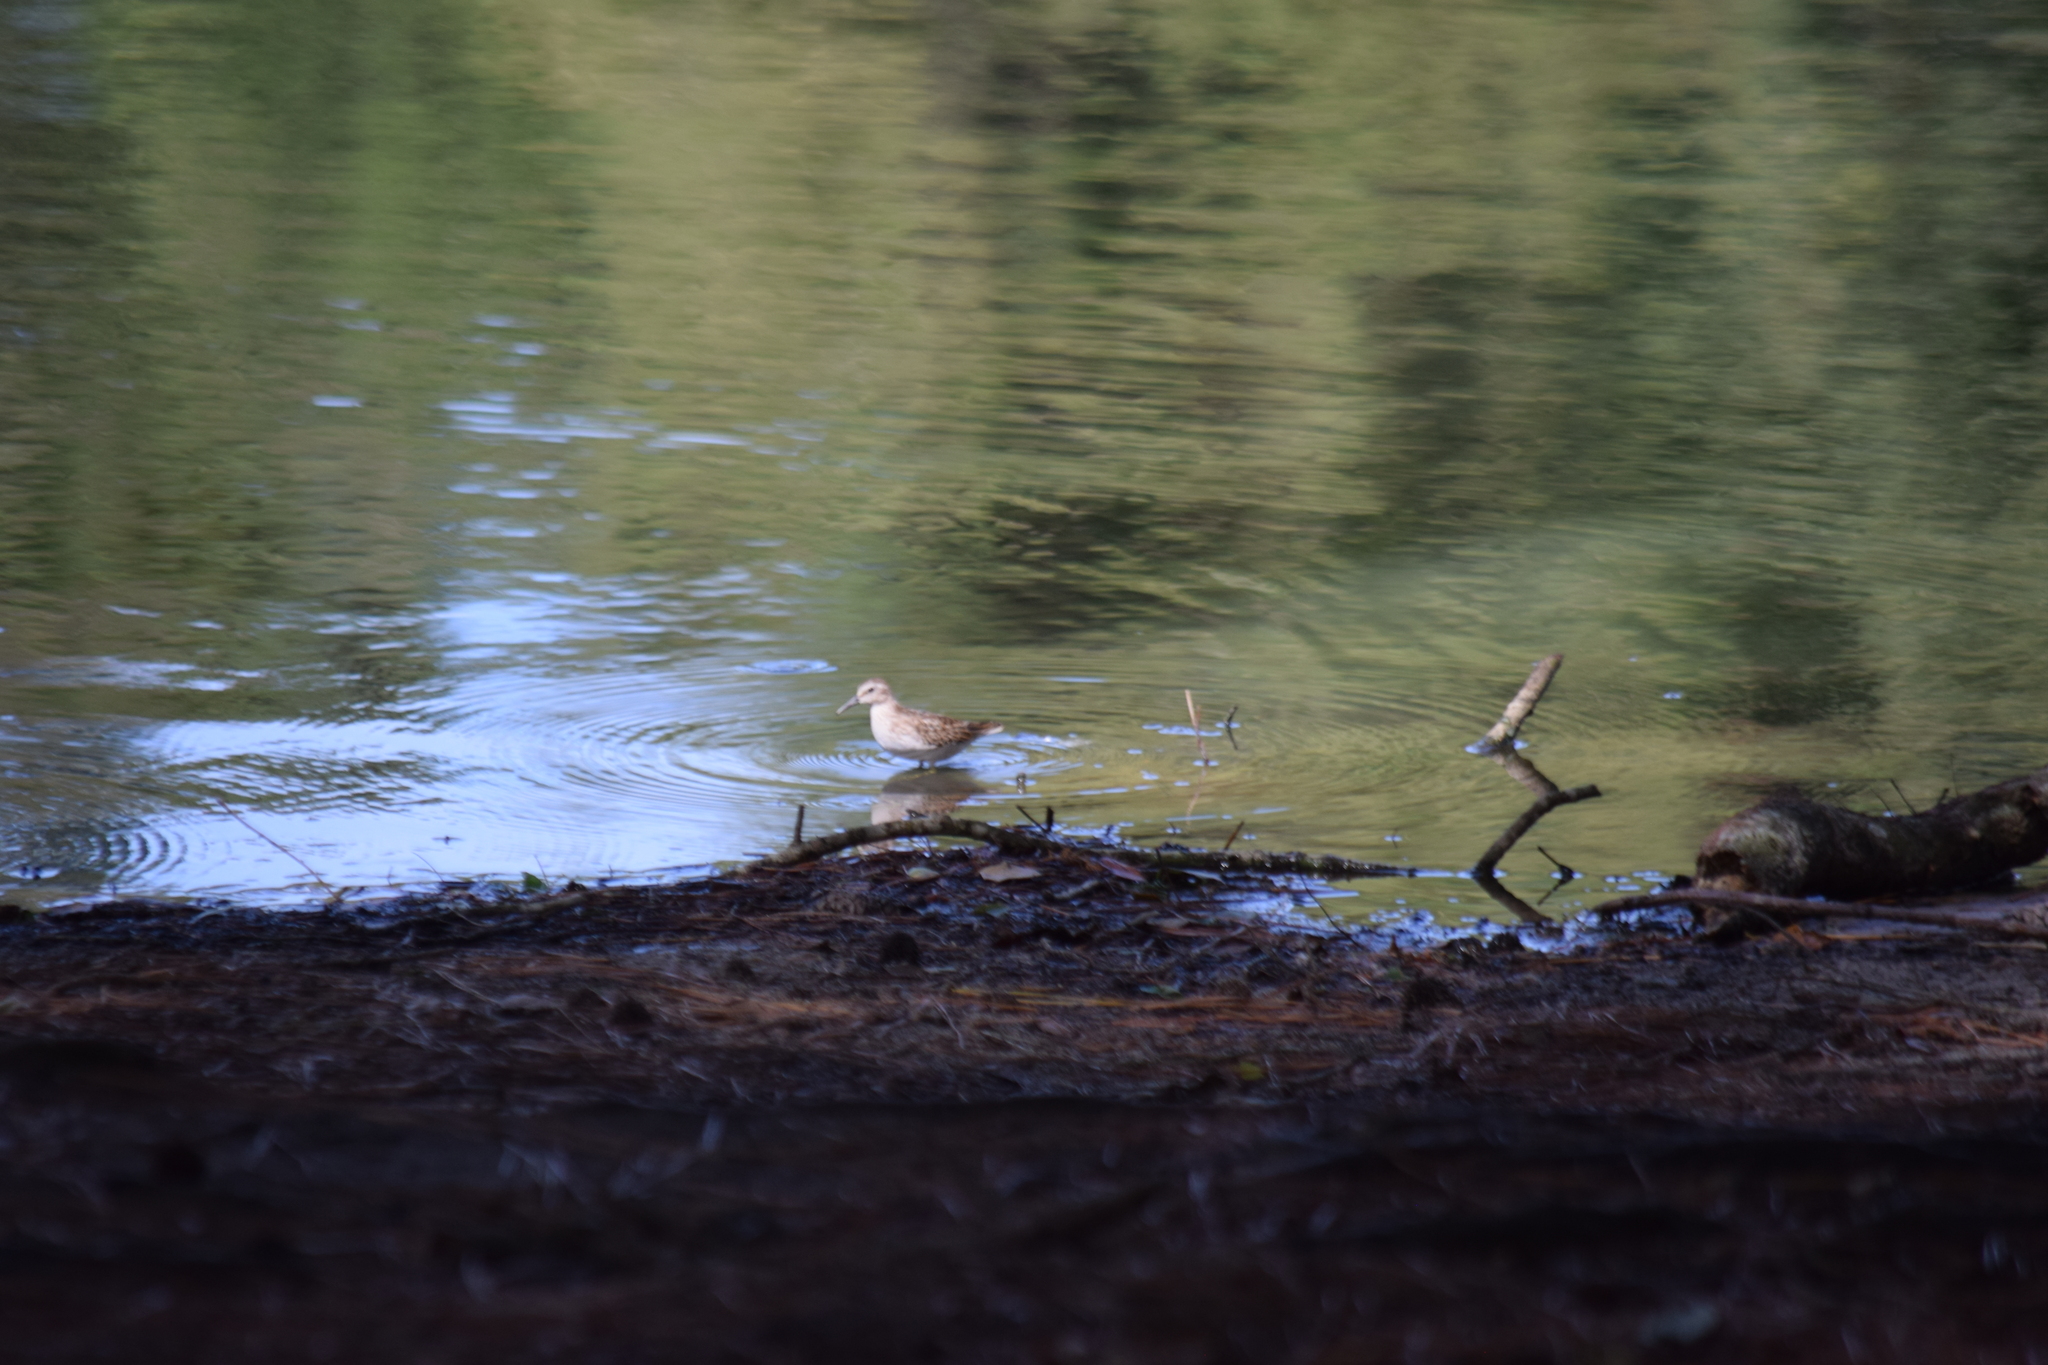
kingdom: Animalia
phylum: Chordata
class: Aves
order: Charadriiformes
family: Scolopacidae
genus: Calidris
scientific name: Calidris minutilla
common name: Least sandpiper
